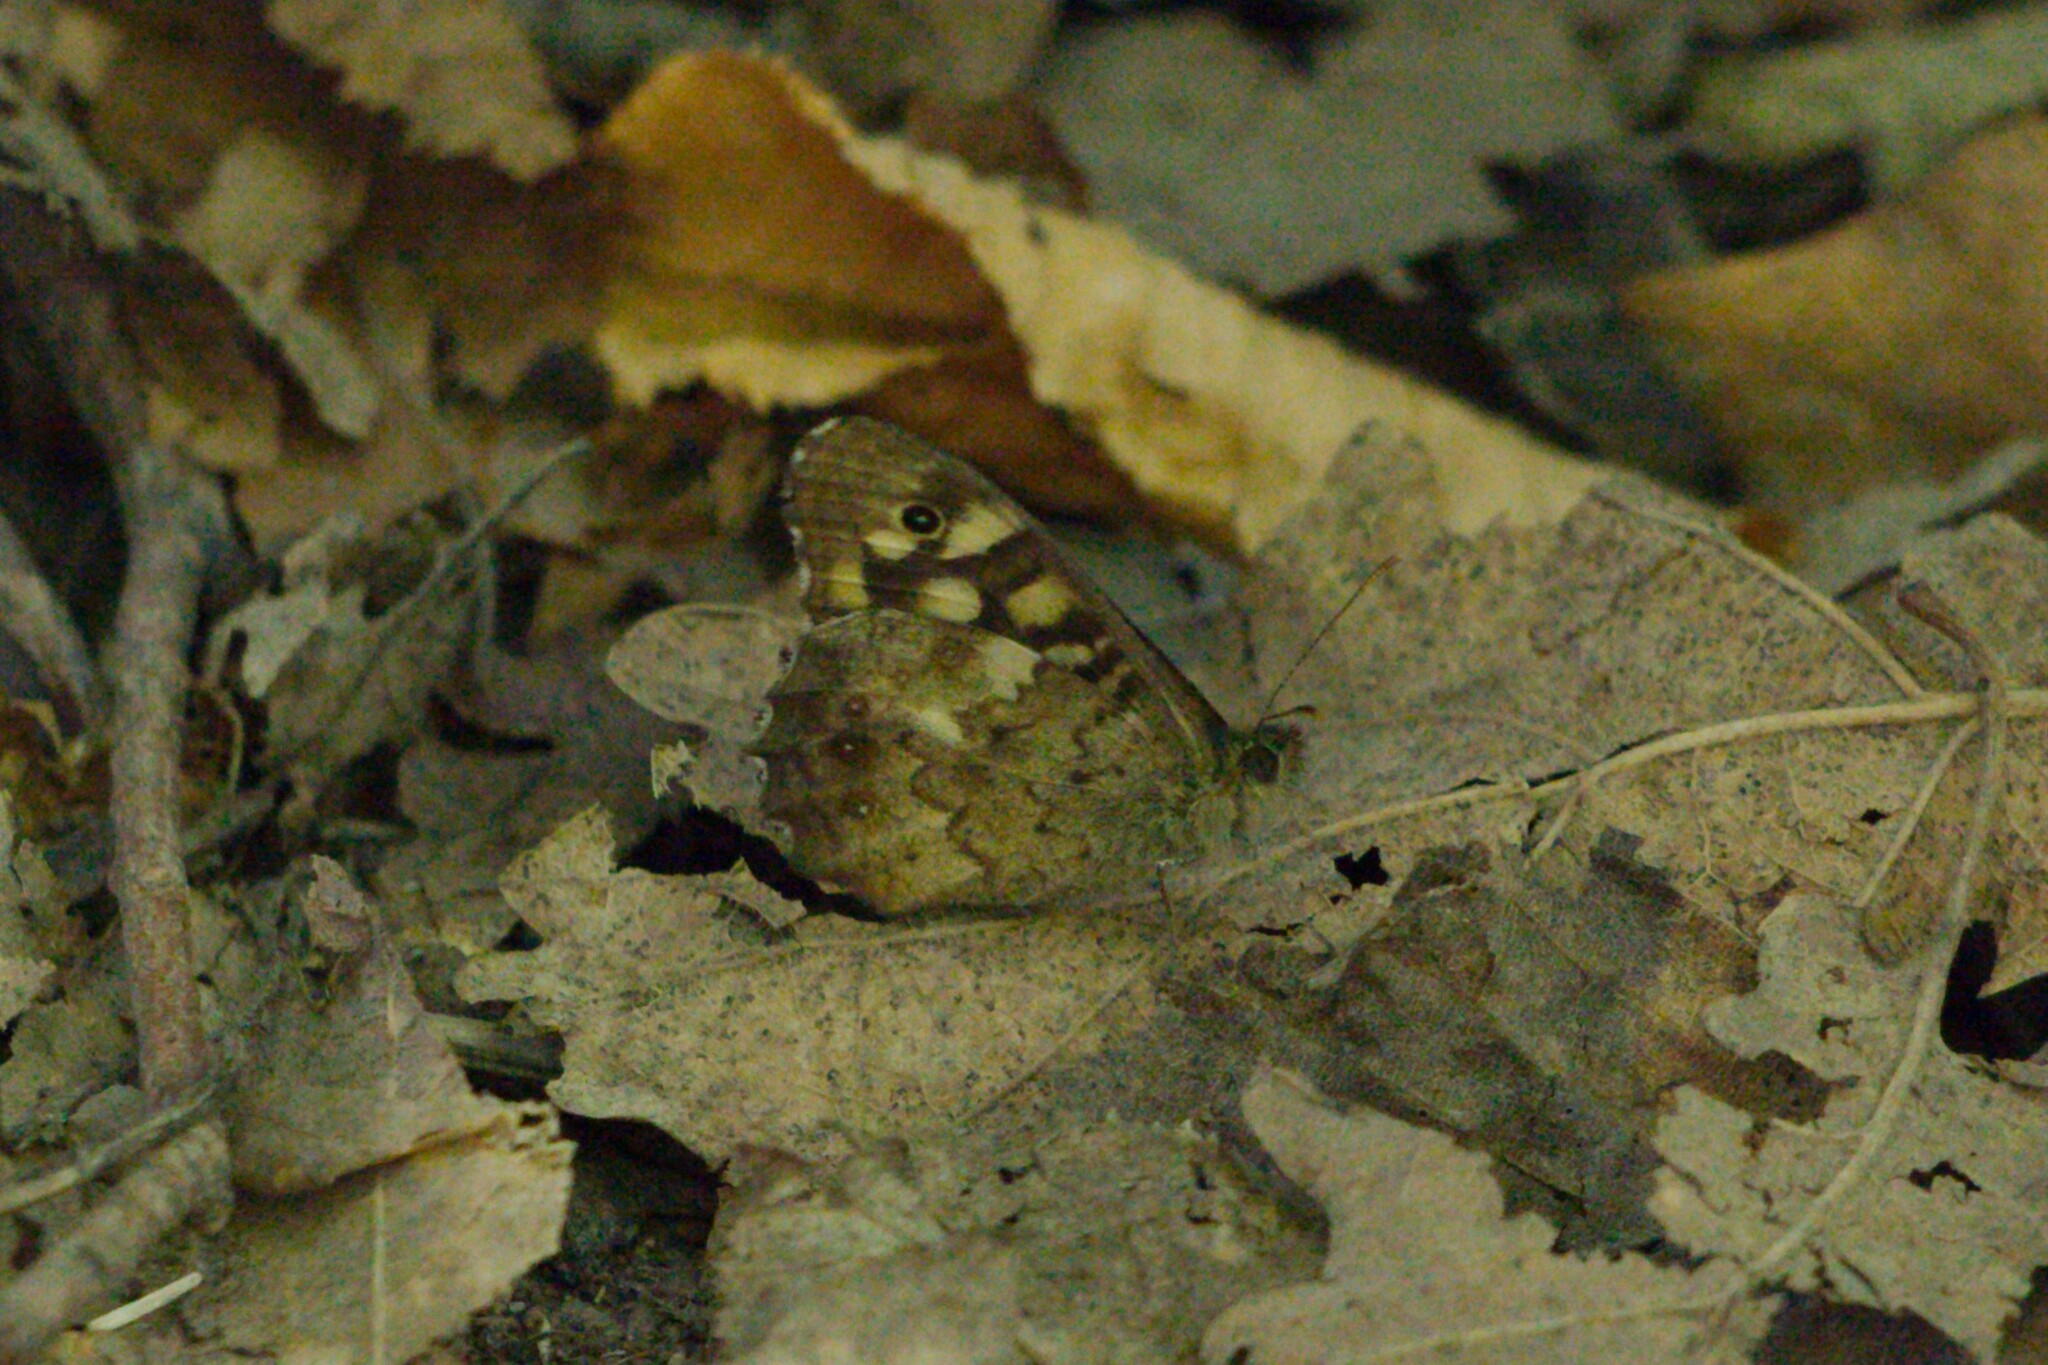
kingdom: Animalia
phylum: Arthropoda
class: Insecta
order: Lepidoptera
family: Nymphalidae
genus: Pararge
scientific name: Pararge aegeria
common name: Speckled wood
